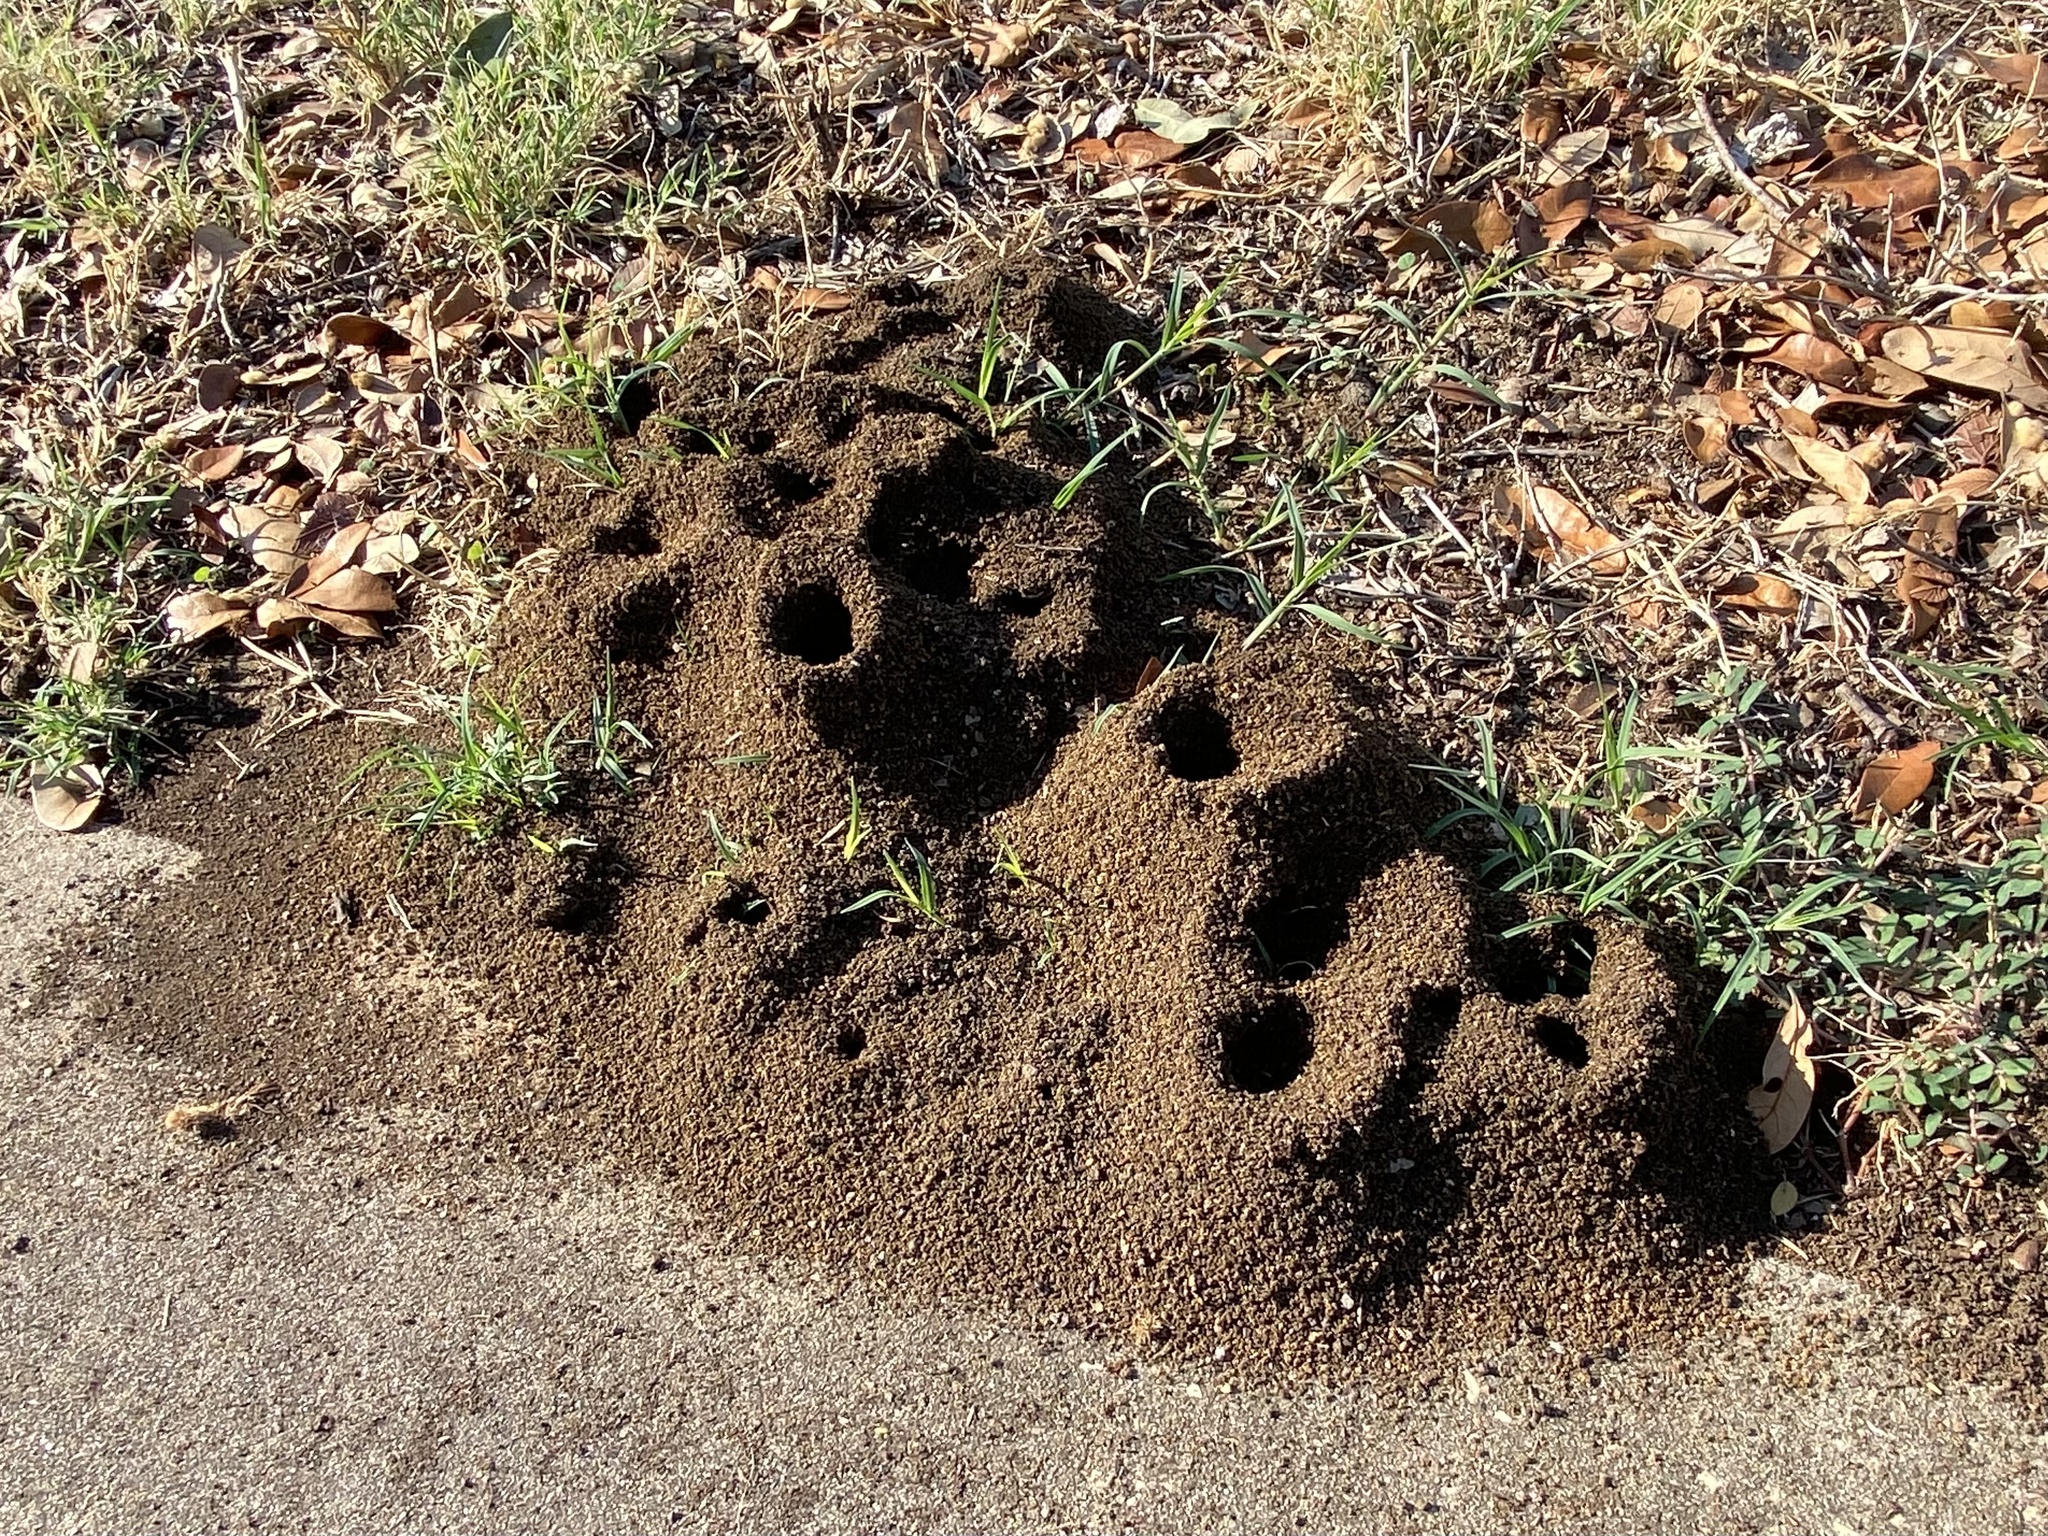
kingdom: Animalia
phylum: Arthropoda
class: Insecta
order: Hymenoptera
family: Formicidae
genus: Solenopsis
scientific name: Solenopsis invicta
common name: Red imported fire ant
